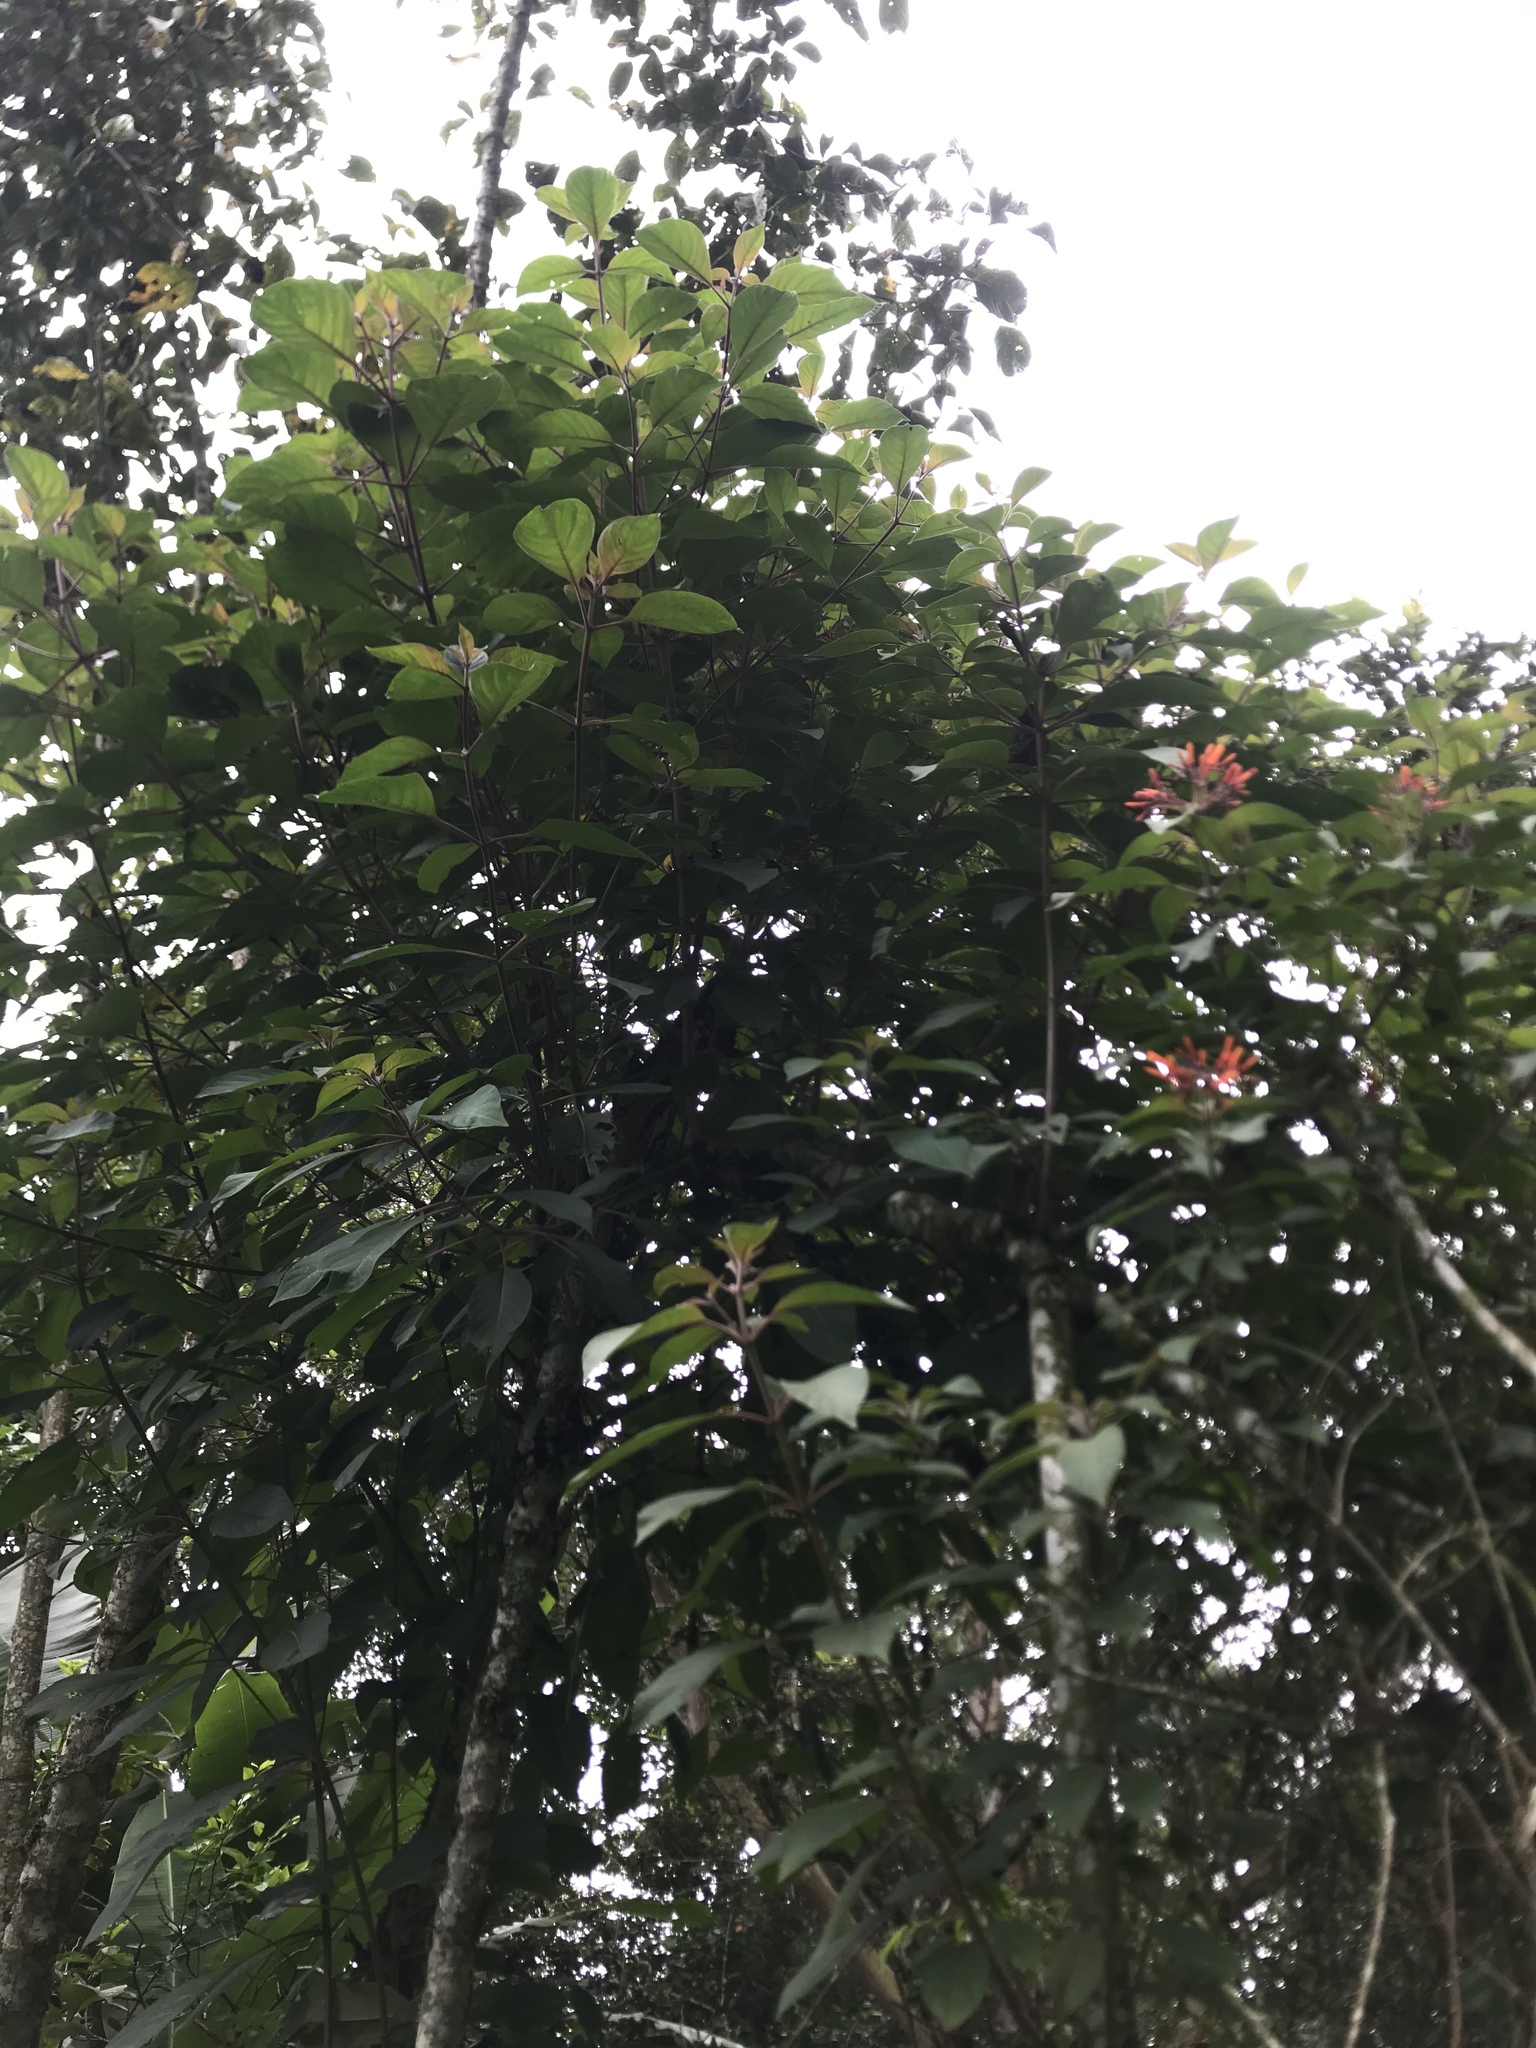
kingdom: Plantae
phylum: Tracheophyta
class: Magnoliopsida
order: Gentianales
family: Rubiaceae
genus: Hamelia
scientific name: Hamelia patens
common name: Redhead
